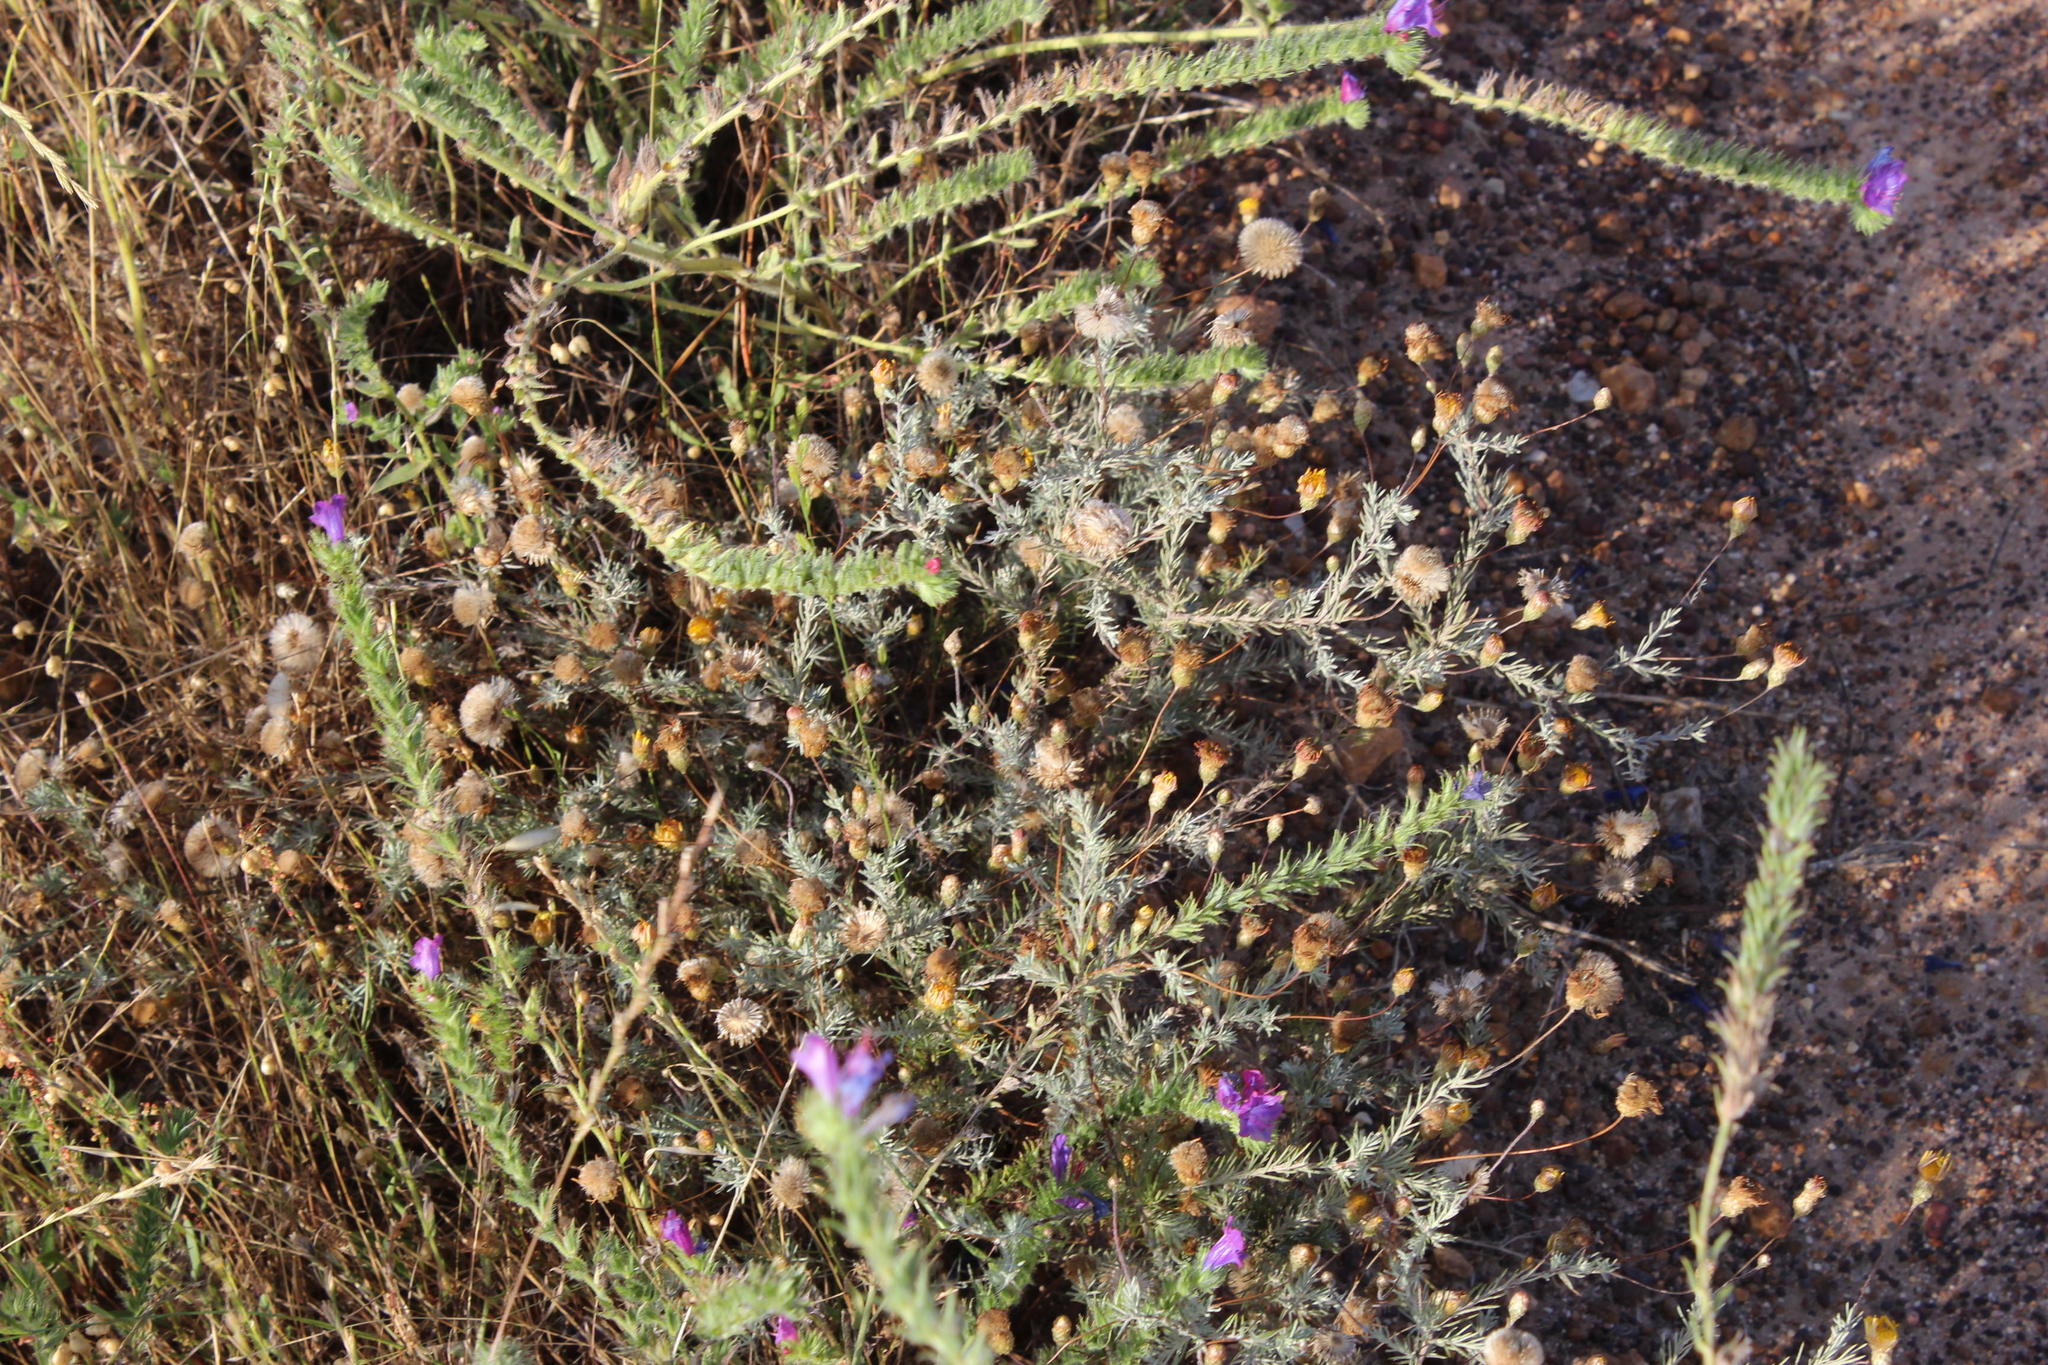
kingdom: Plantae
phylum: Tracheophyta
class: Magnoliopsida
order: Boraginales
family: Boraginaceae
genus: Echium
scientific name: Echium plantagineum
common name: Purple viper's-bugloss
